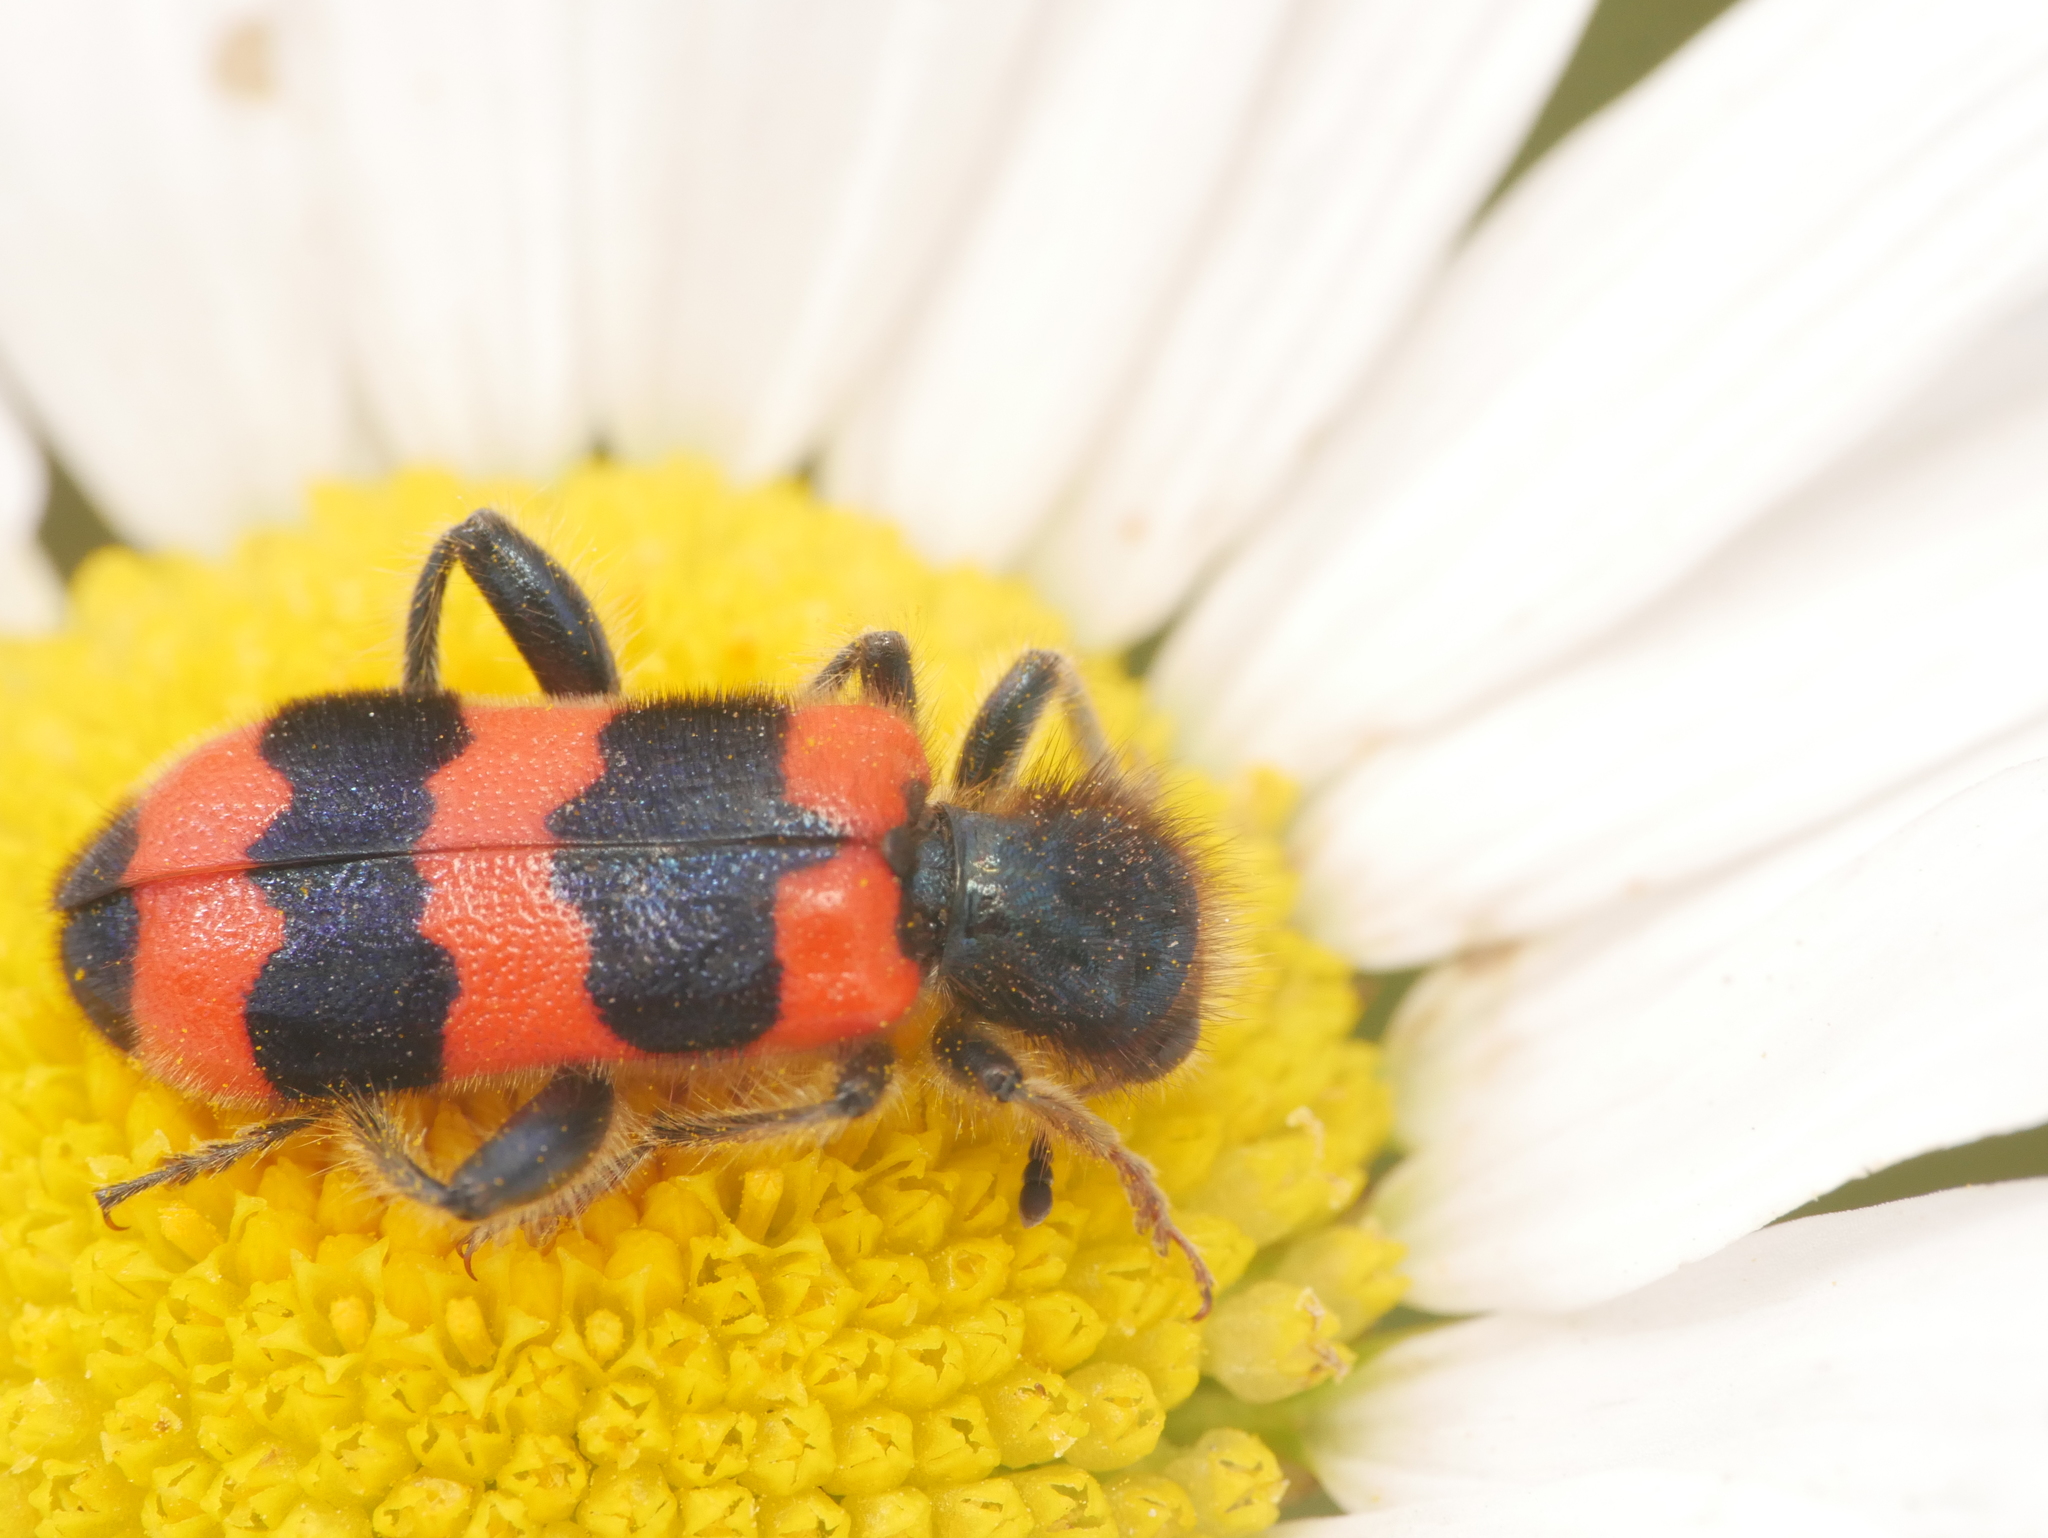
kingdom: Animalia
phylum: Arthropoda
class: Insecta
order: Coleoptera
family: Cleridae
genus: Trichodes
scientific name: Trichodes apiarius
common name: Bee-eating beetle
